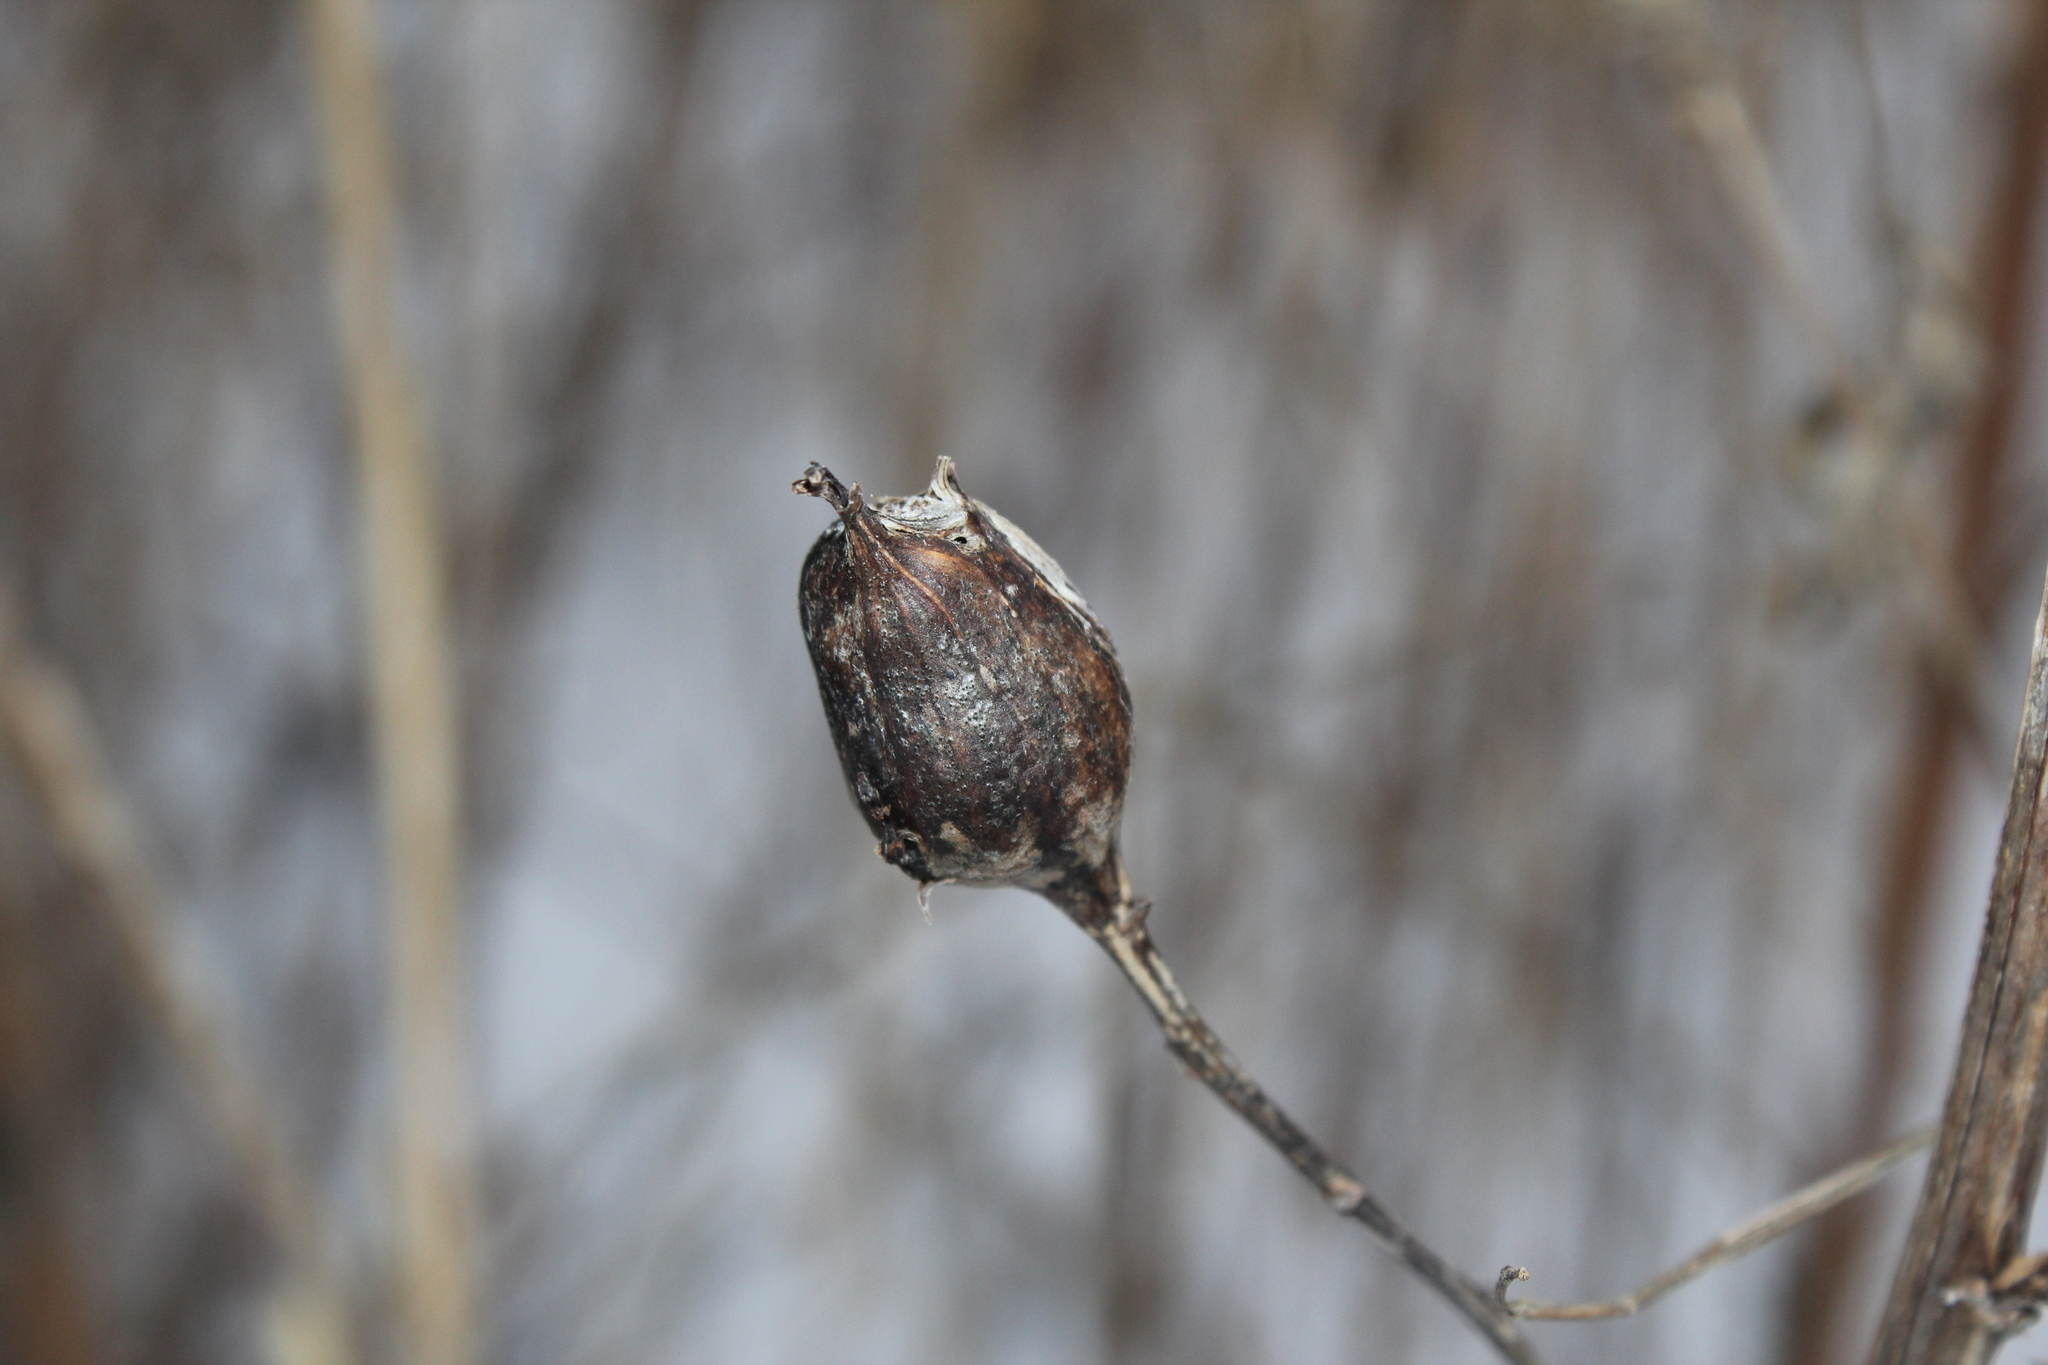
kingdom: Animalia
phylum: Arthropoda
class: Insecta
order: Diptera
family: Tephritidae
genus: Eurosta
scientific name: Eurosta solidaginis
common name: Goldenrod gall fly
